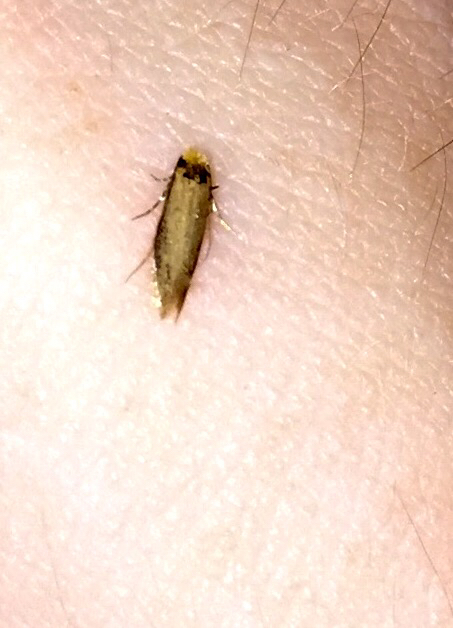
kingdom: Animalia
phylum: Arthropoda
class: Insecta
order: Lepidoptera
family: Meessiidae
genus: Homostinea
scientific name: Homostinea curviliniella
